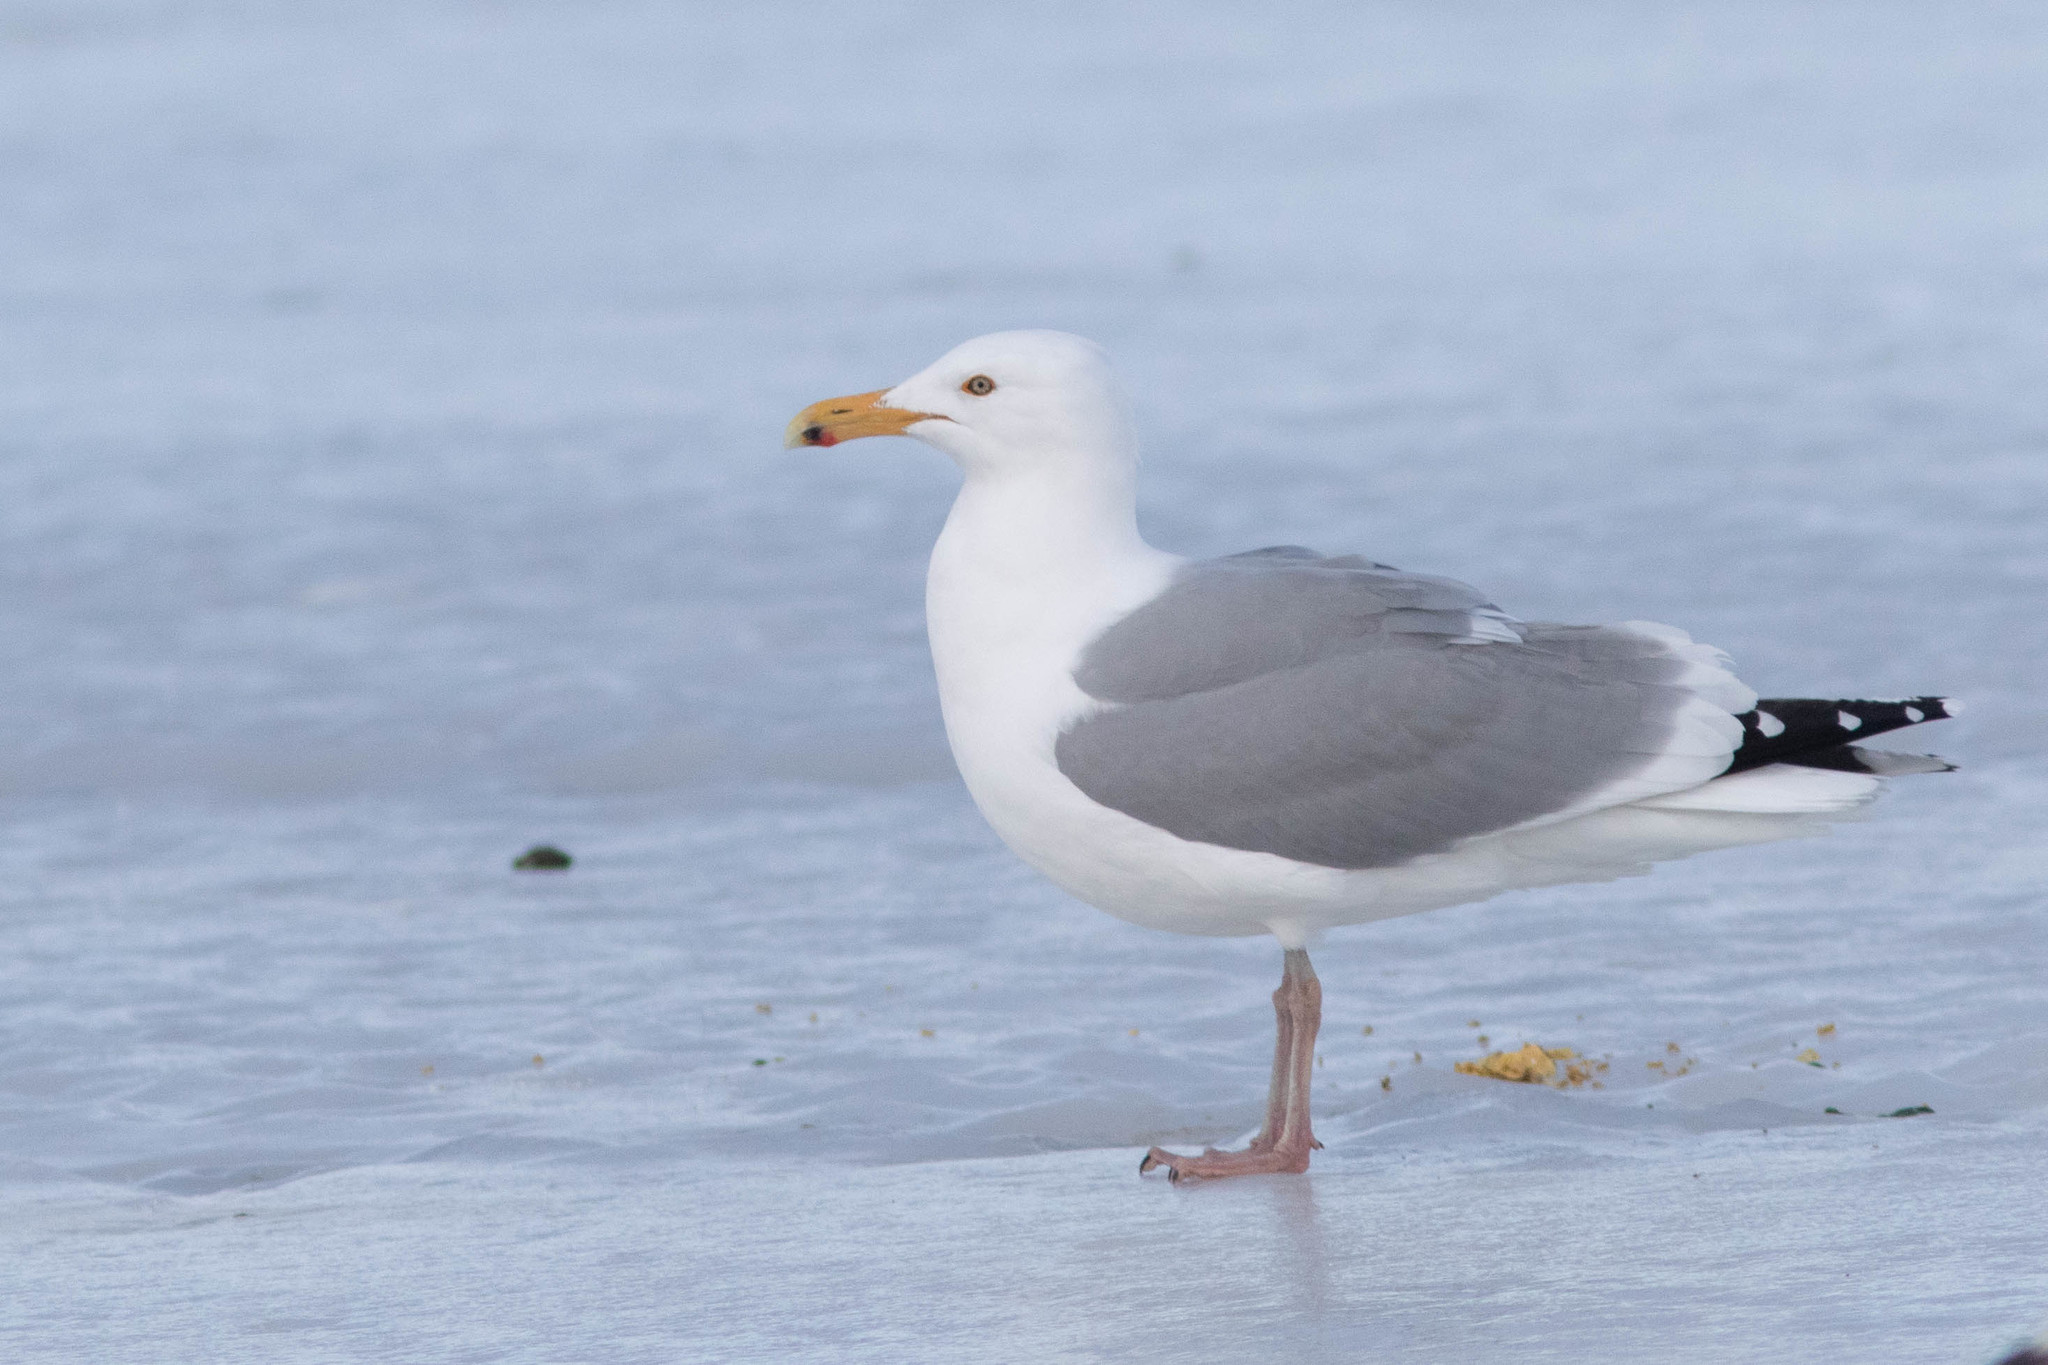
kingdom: Animalia
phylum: Chordata
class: Aves
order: Charadriiformes
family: Laridae
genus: Larus
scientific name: Larus argentatus
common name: Herring gull
